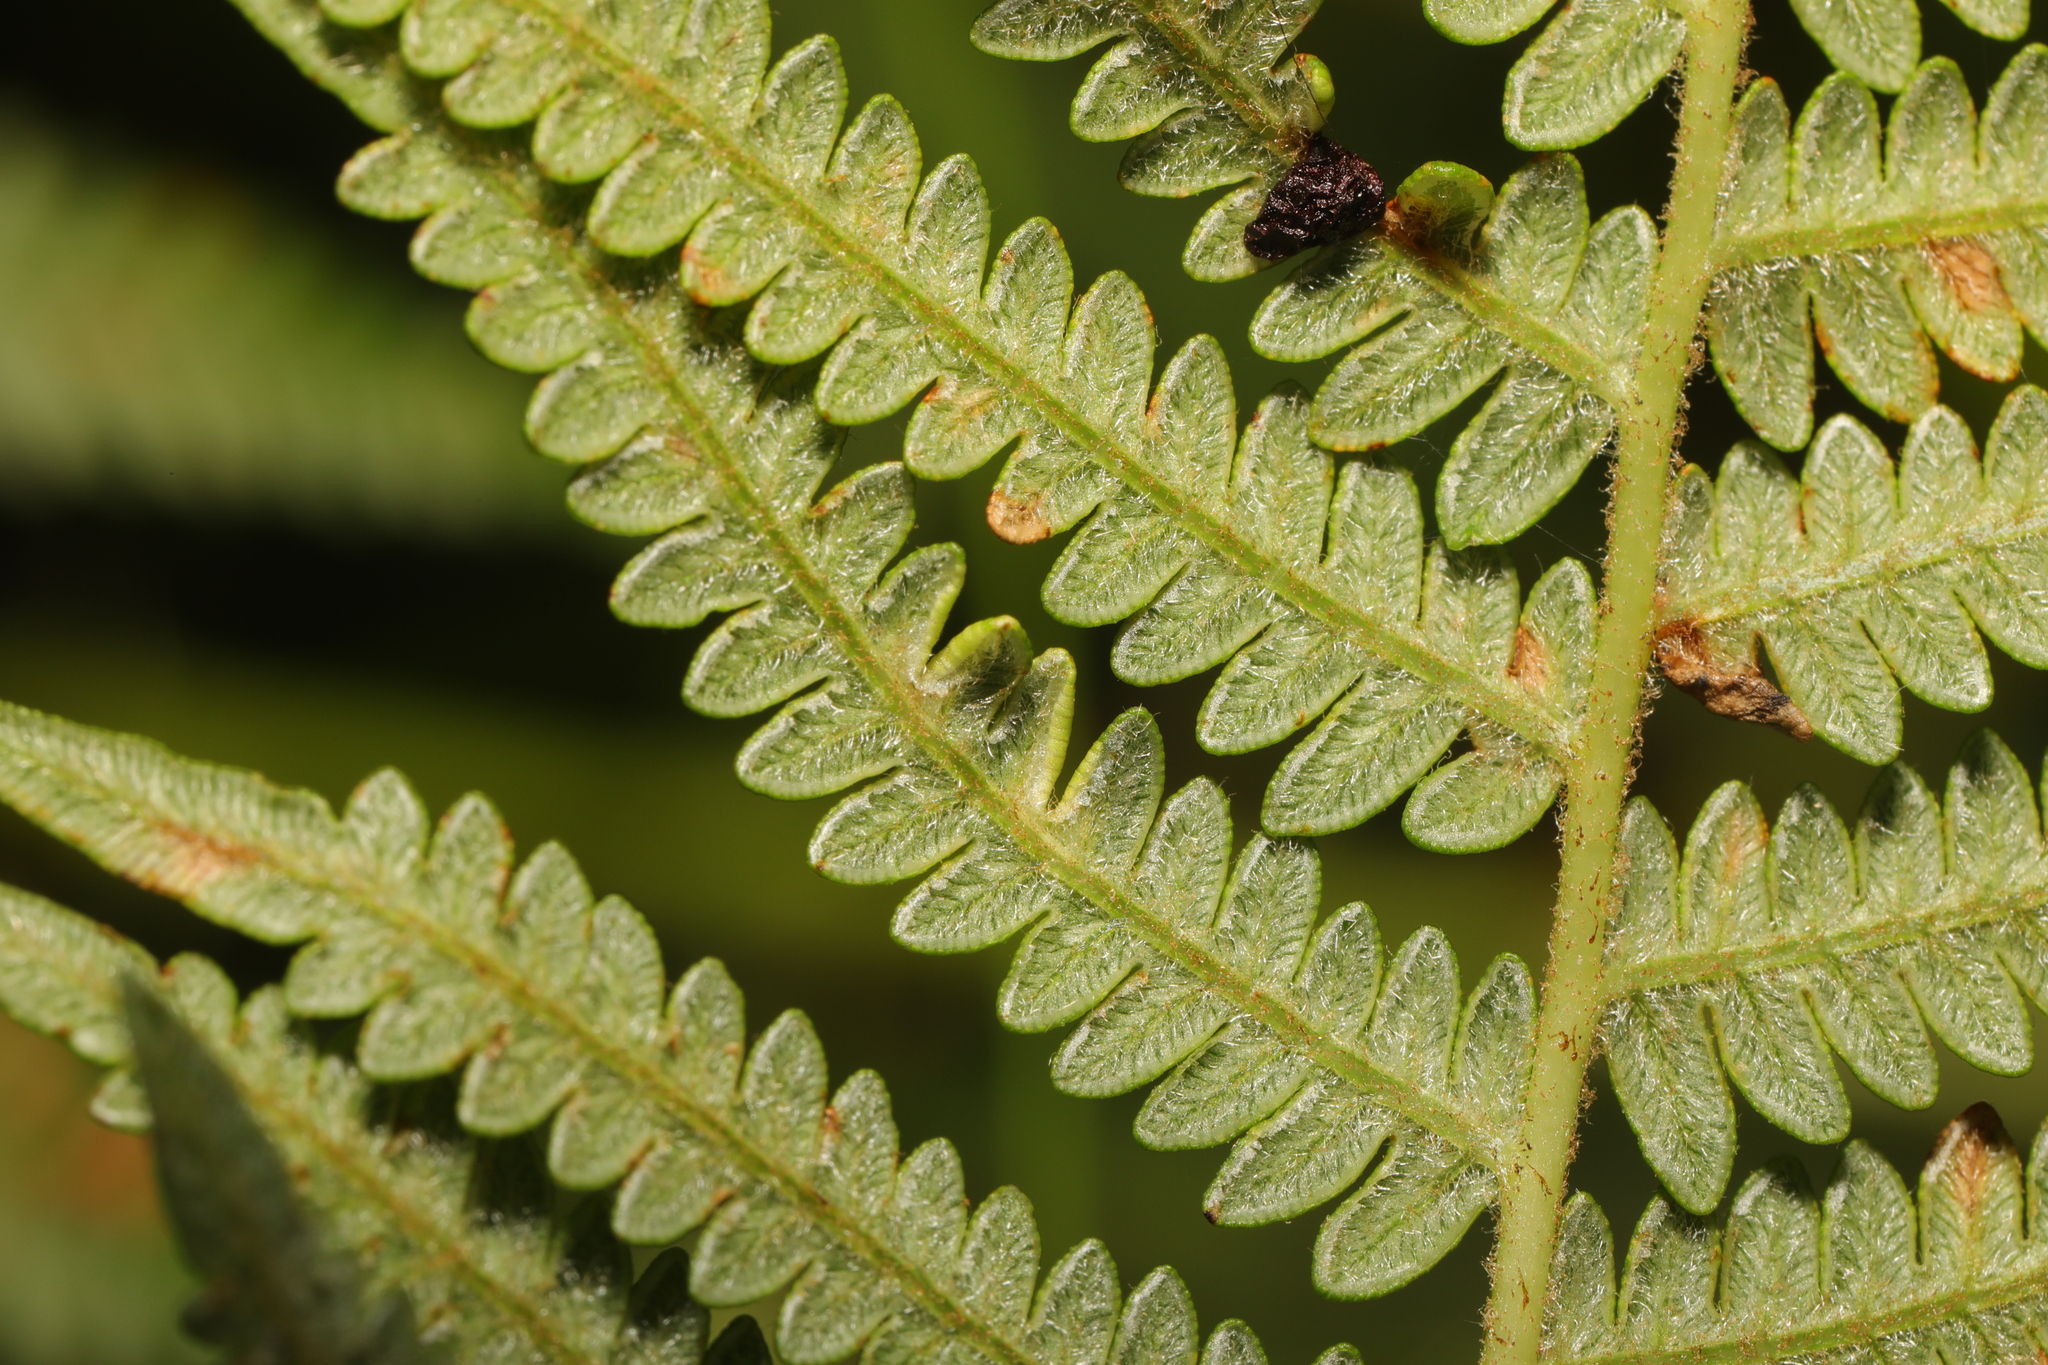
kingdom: Plantae
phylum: Tracheophyta
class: Polypodiopsida
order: Polypodiales
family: Dennstaedtiaceae
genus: Pteridium
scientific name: Pteridium aquilinum
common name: Bracken
